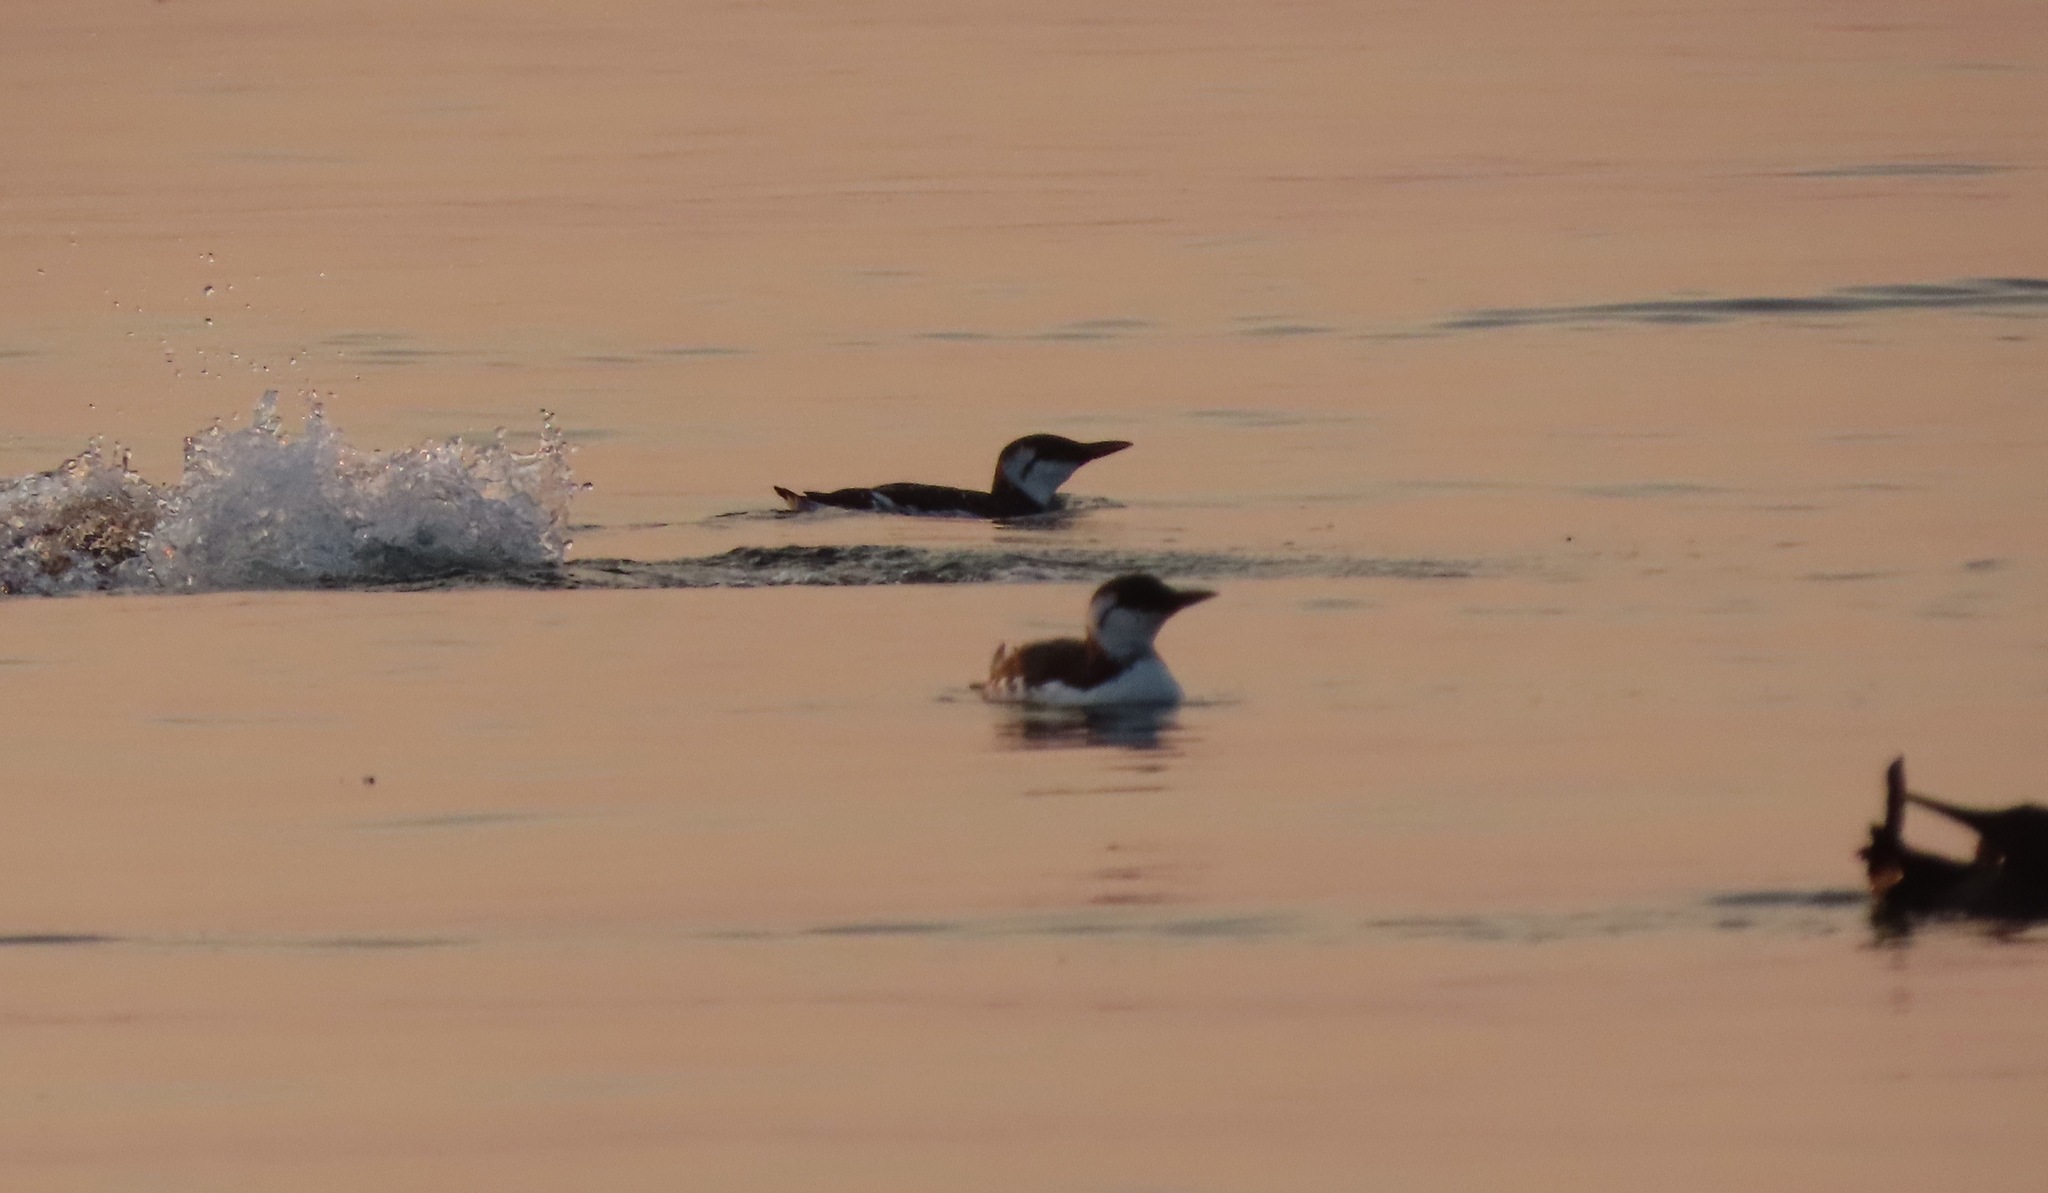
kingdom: Animalia
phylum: Chordata
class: Aves
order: Charadriiformes
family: Alcidae
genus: Uria
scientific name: Uria aalge
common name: Common murre
